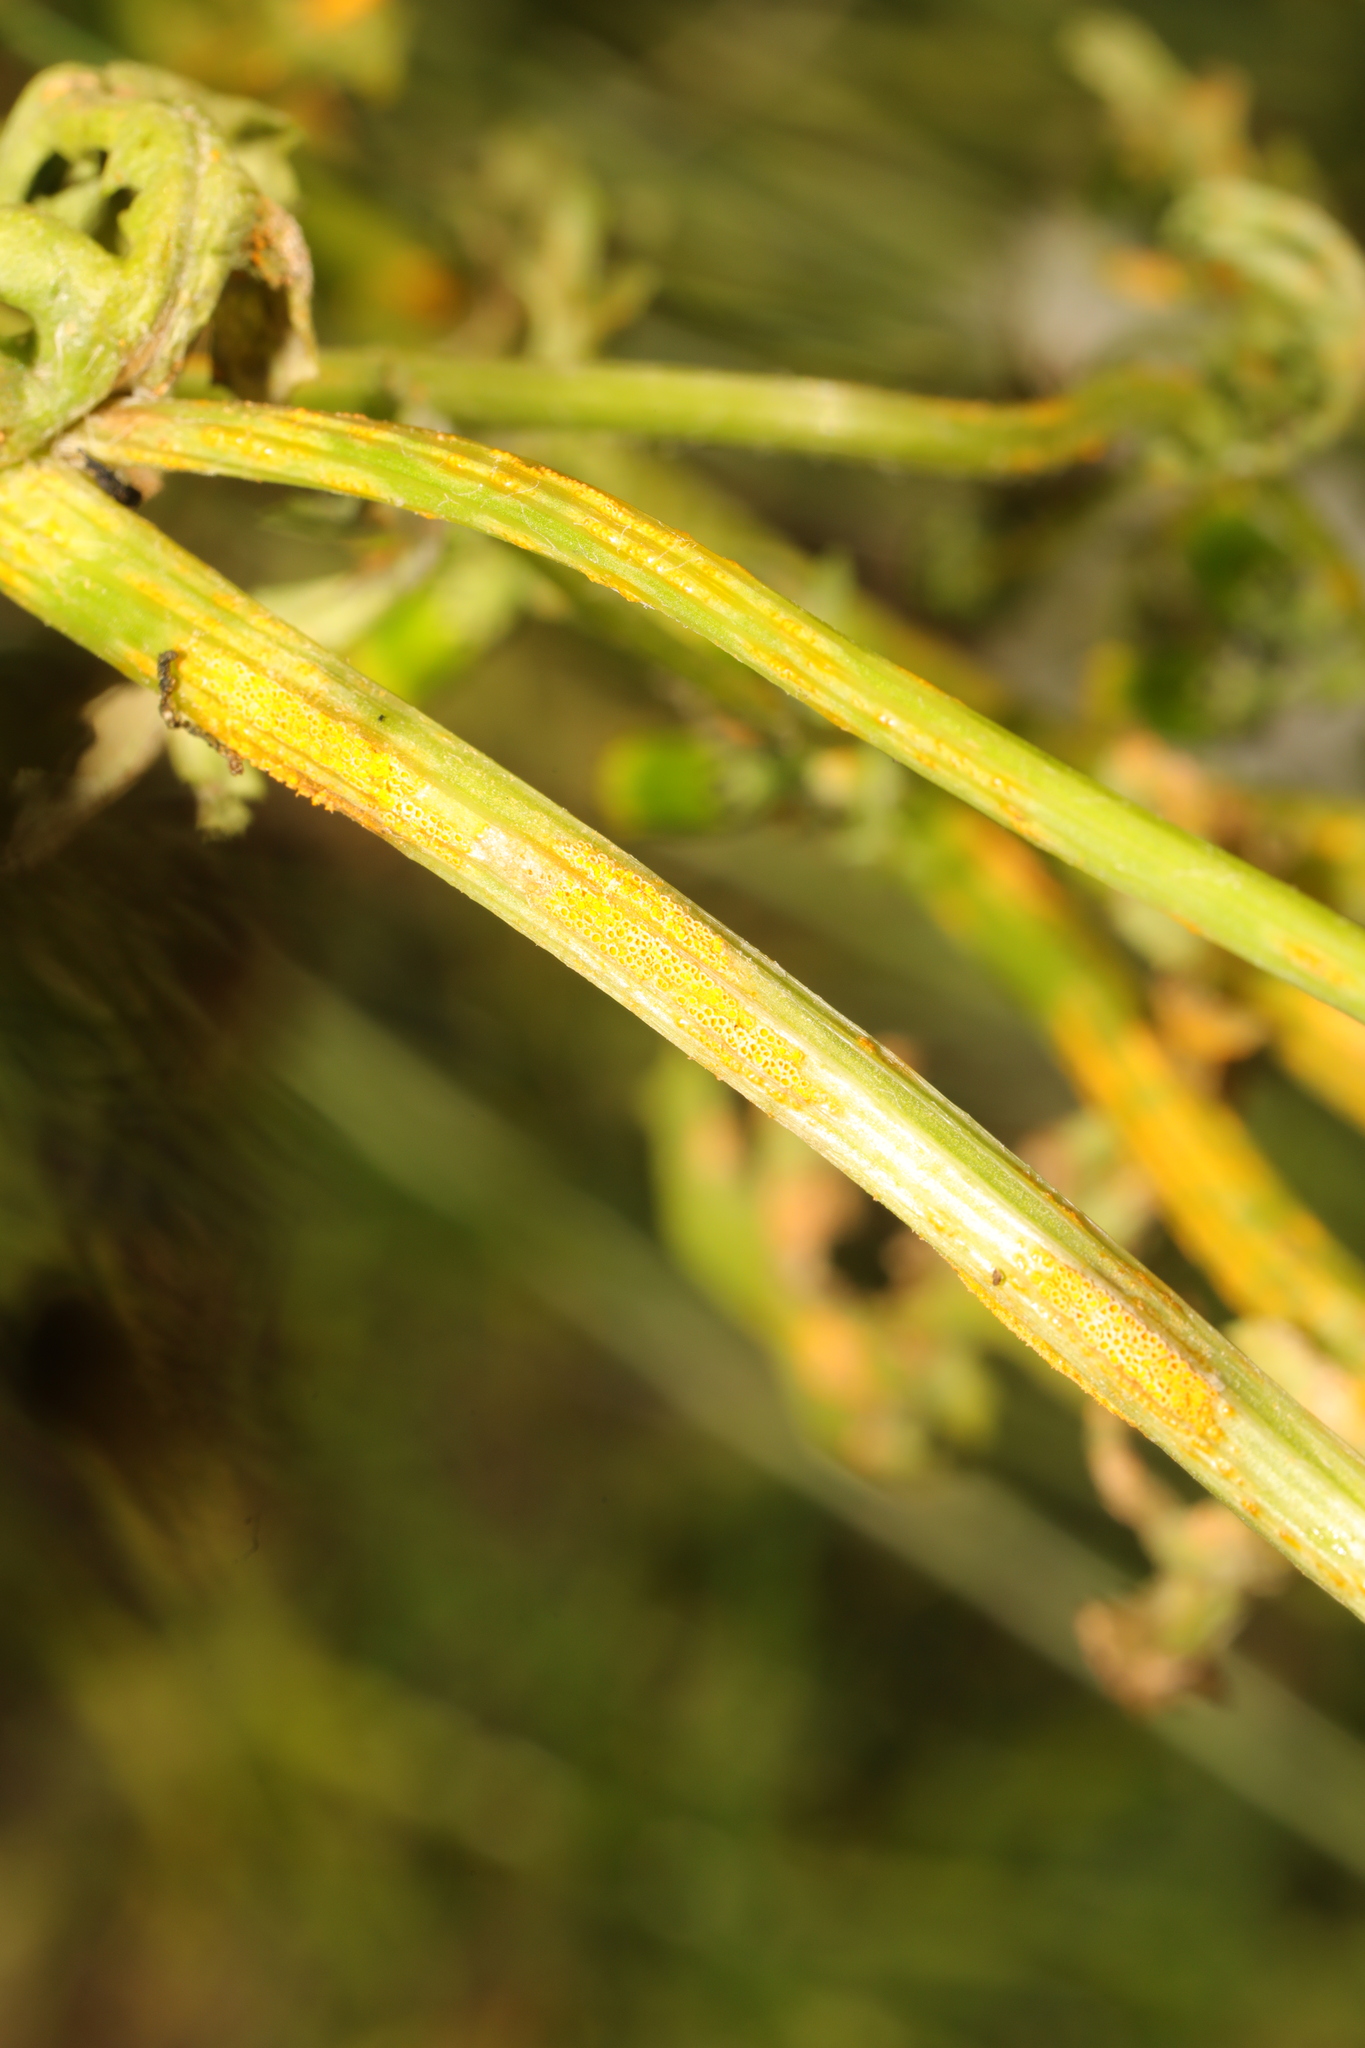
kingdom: Fungi
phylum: Basidiomycota
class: Pucciniomycetes
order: Pucciniales
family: Pucciniaceae
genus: Puccinia
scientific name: Puccinia lagenophorae
